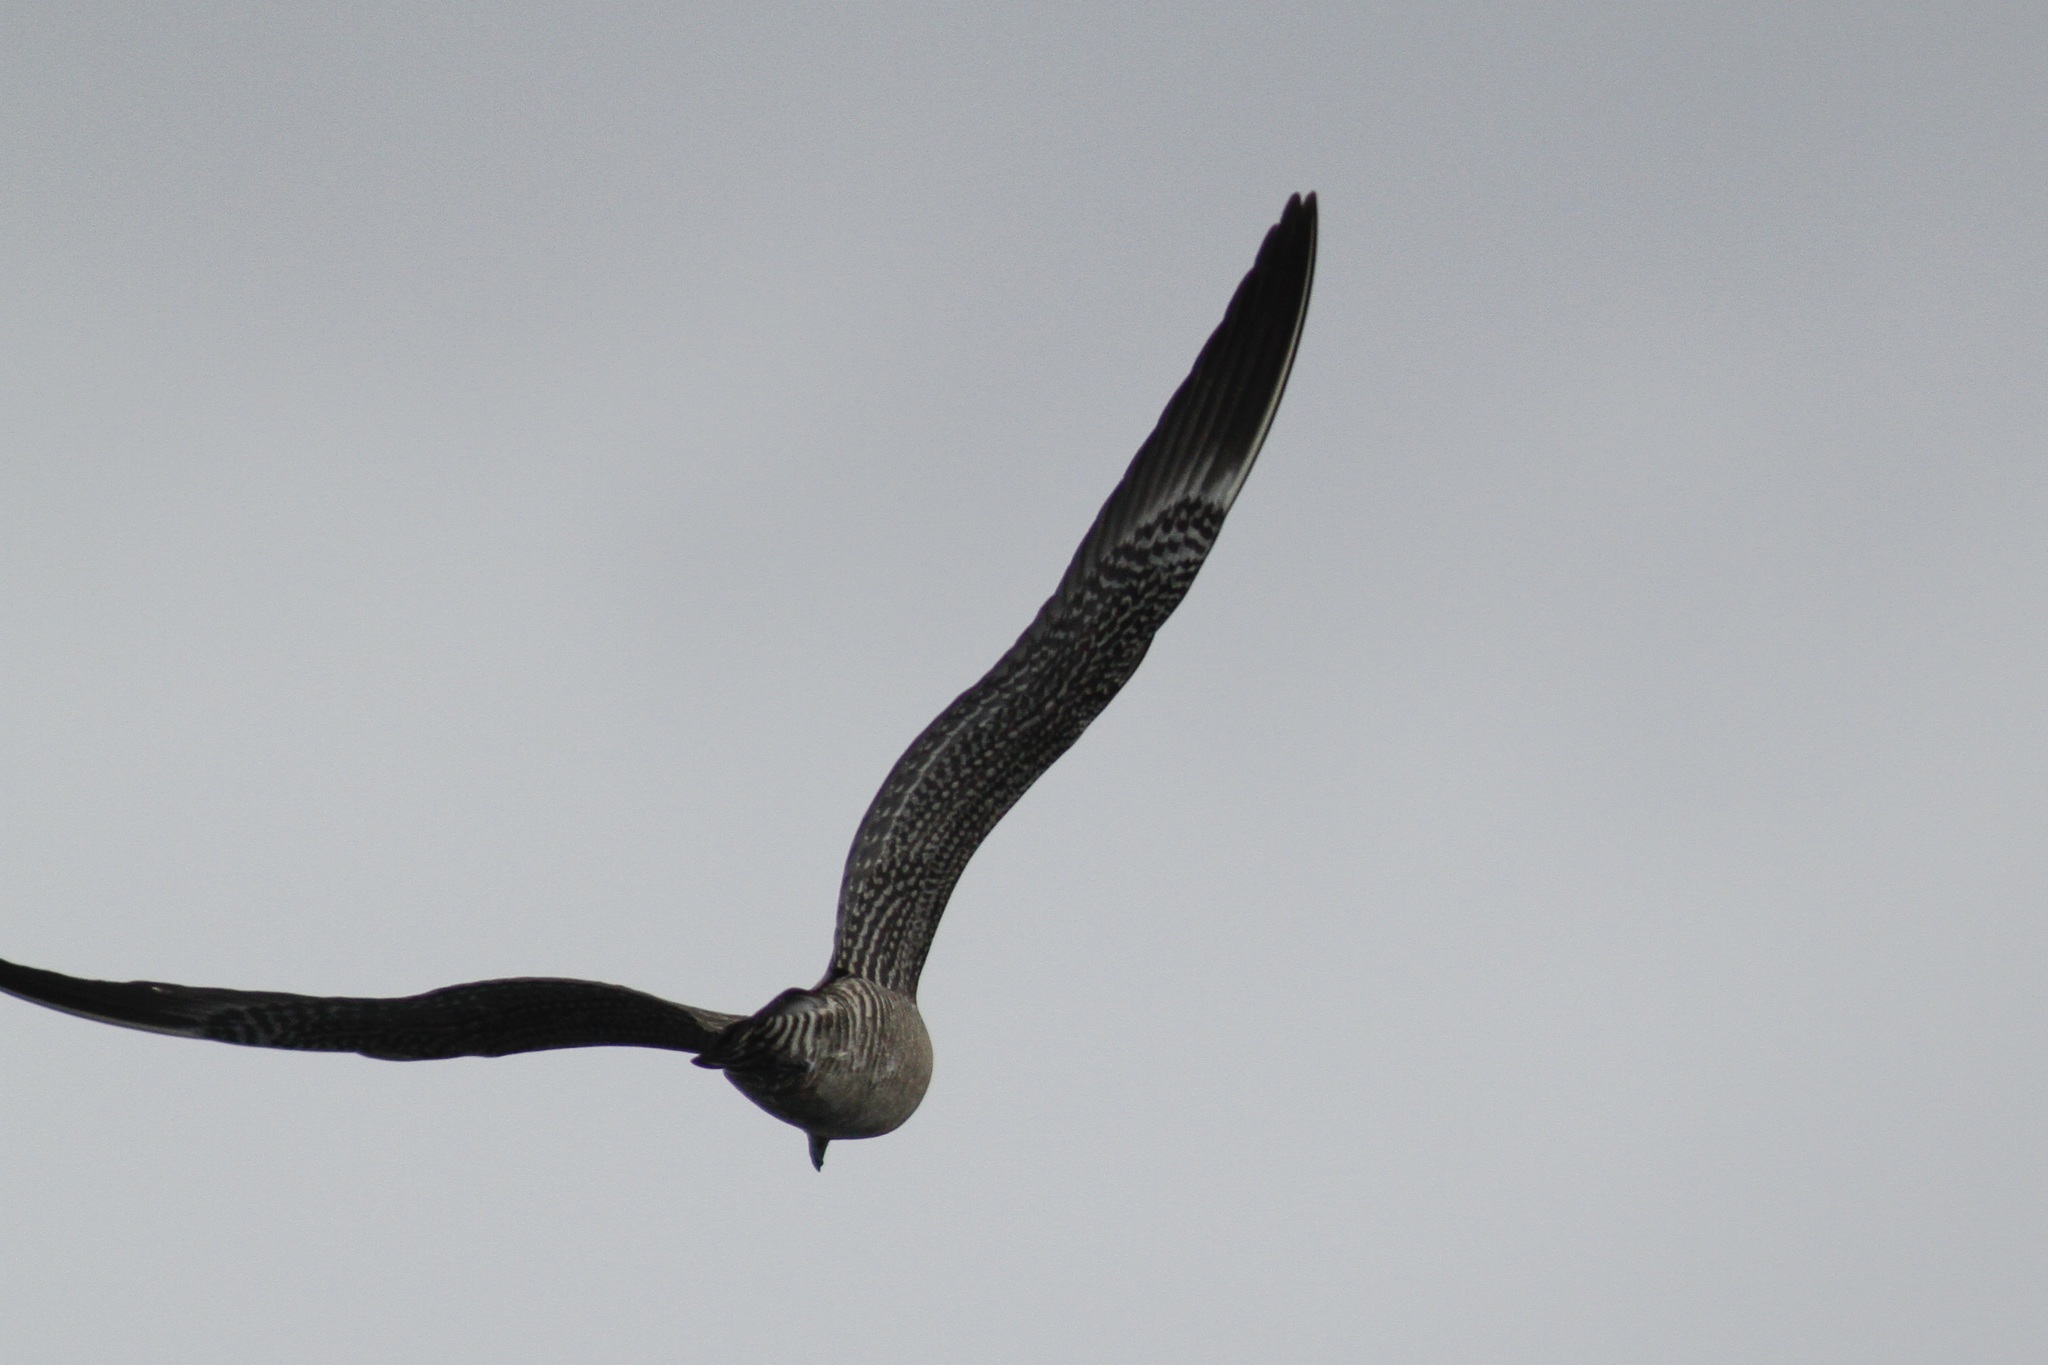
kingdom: Animalia
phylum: Chordata
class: Aves
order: Charadriiformes
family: Stercorariidae
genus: Stercorarius
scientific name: Stercorarius longicaudus
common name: Long-tailed jaeger
